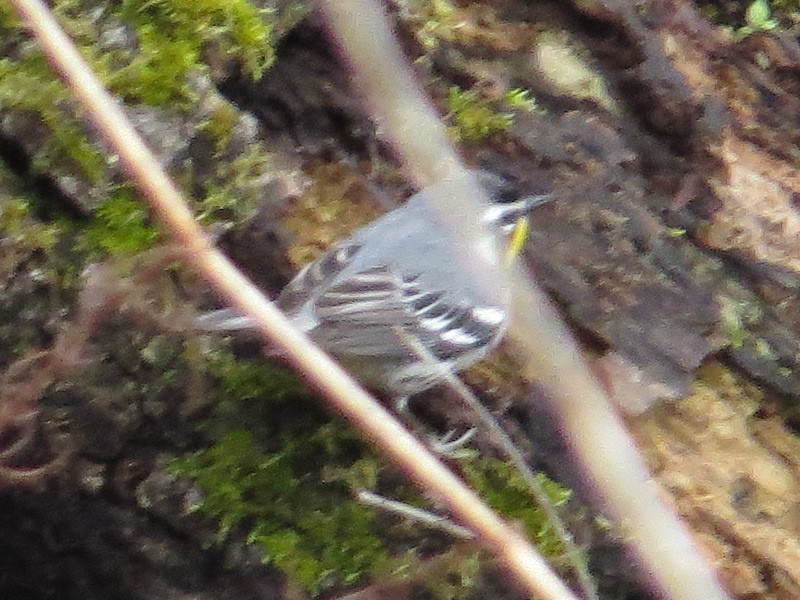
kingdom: Animalia
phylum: Chordata
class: Aves
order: Passeriformes
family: Parulidae
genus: Setophaga
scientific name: Setophaga dominica
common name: Yellow-throated warbler
